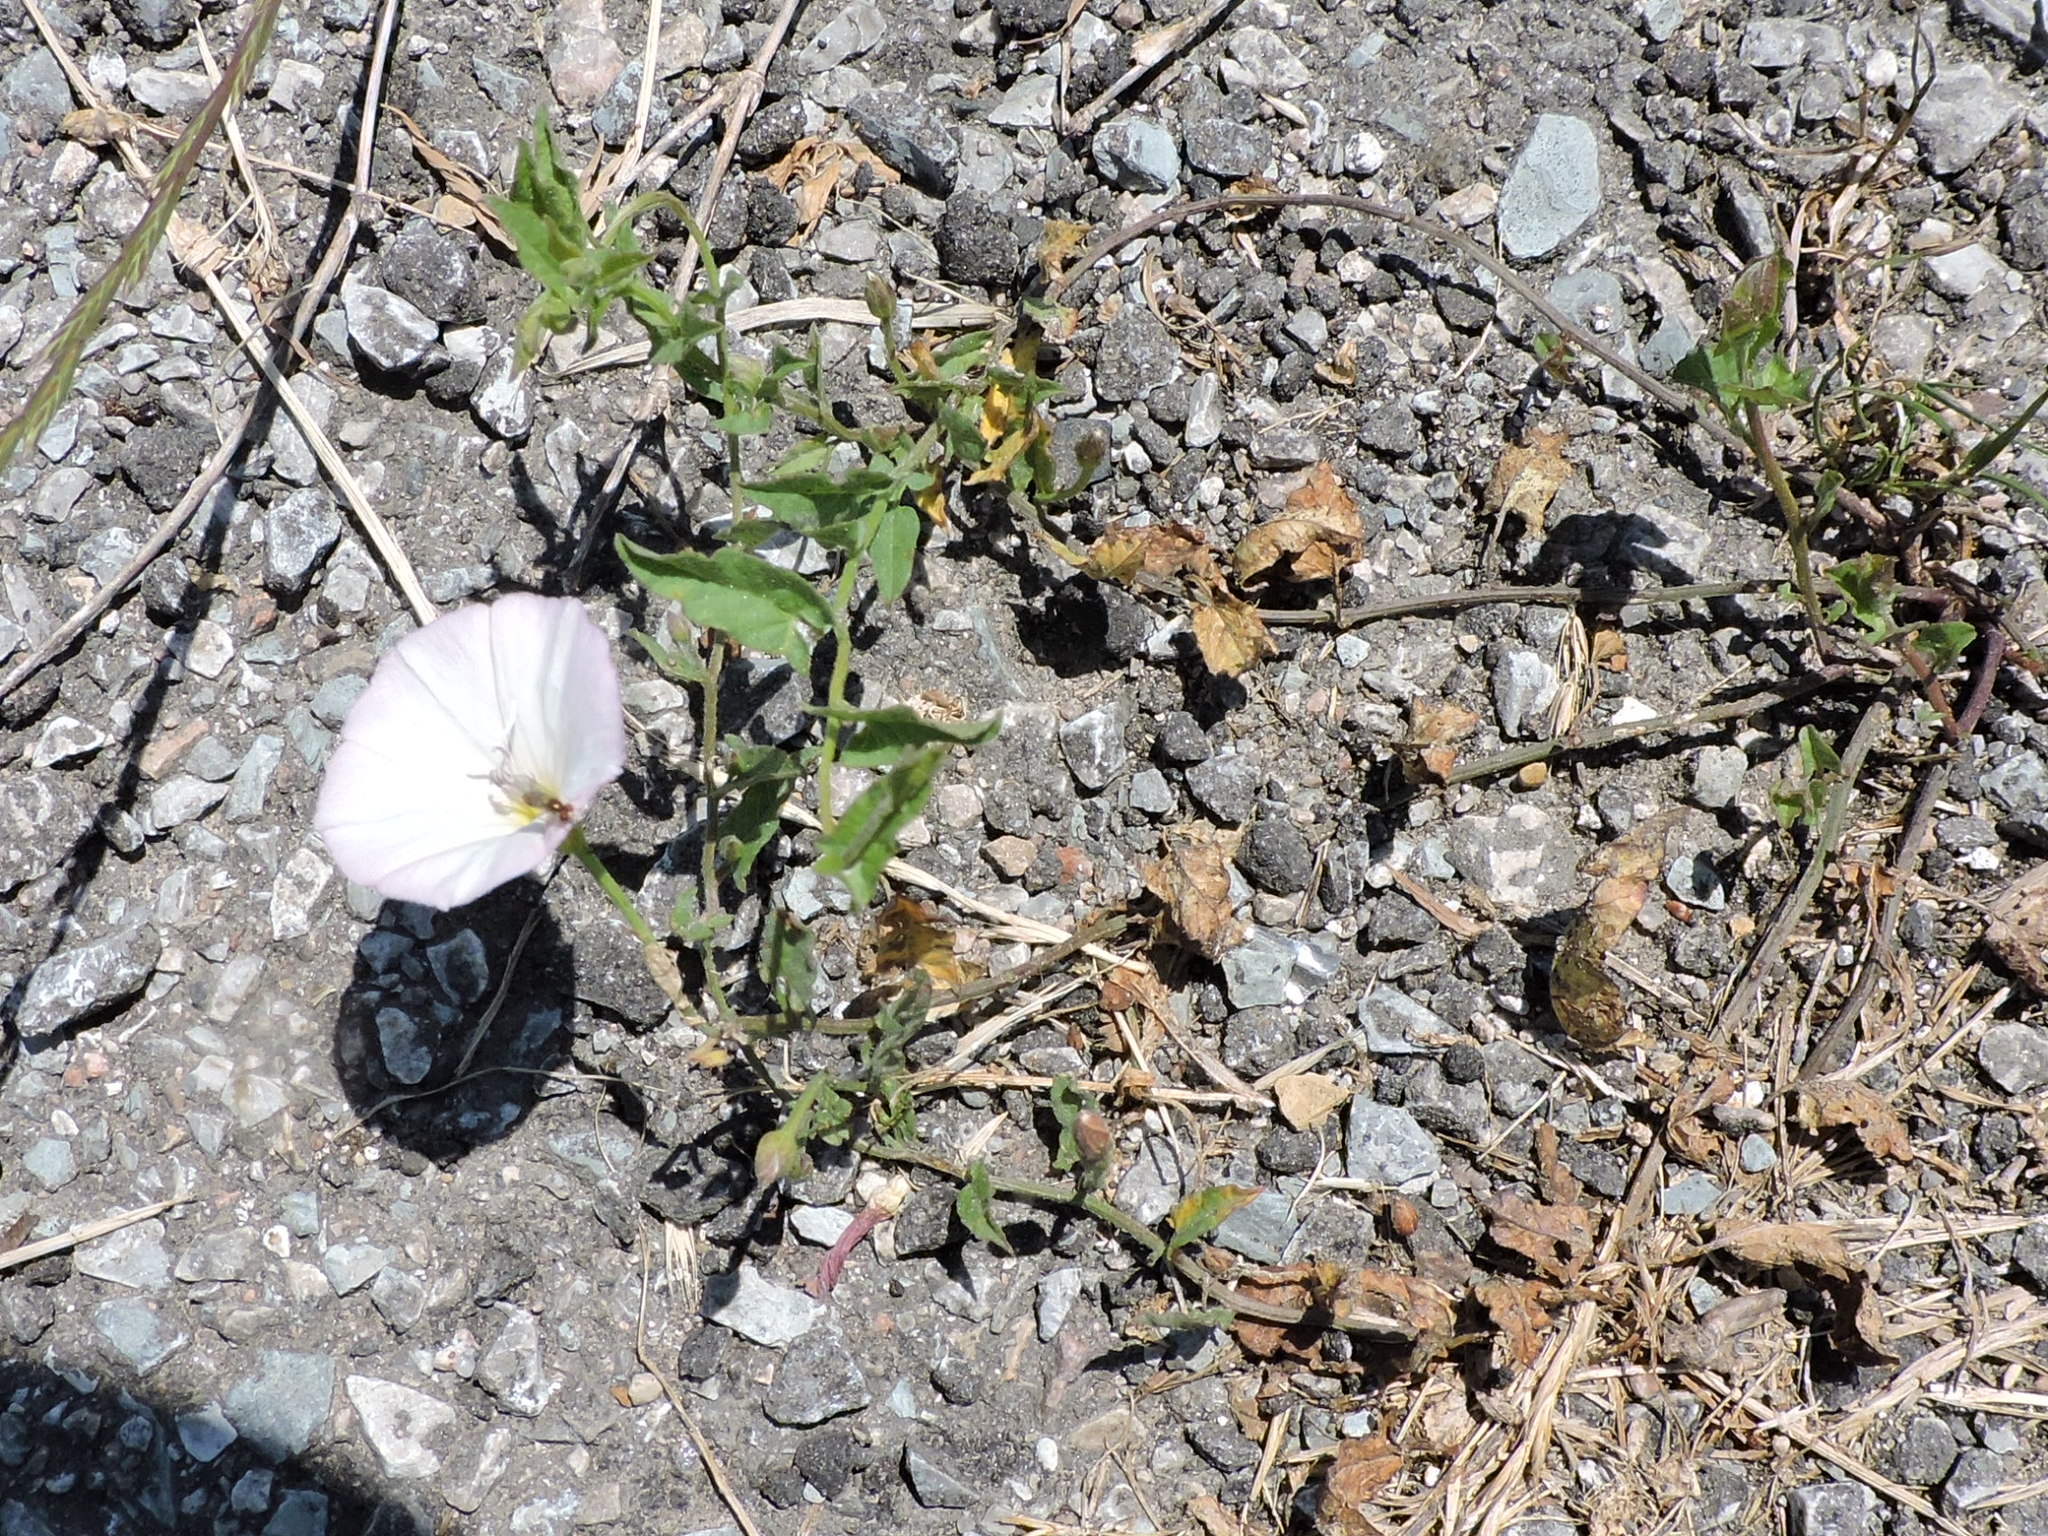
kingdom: Plantae
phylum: Tracheophyta
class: Magnoliopsida
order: Solanales
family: Convolvulaceae
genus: Convolvulus
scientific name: Convolvulus arvensis
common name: Field bindweed
